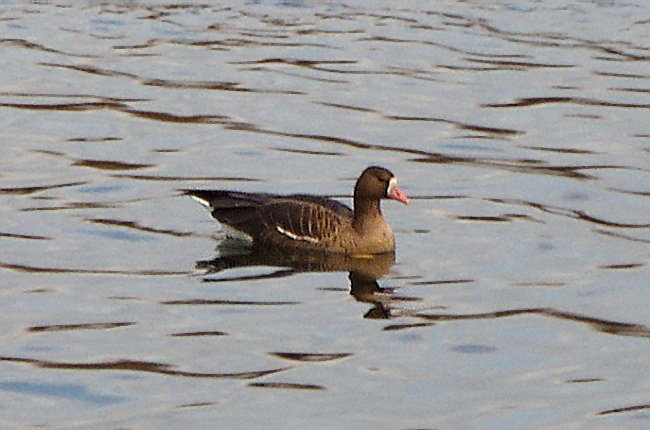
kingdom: Animalia
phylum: Chordata
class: Aves
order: Anseriformes
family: Anatidae
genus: Anser
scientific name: Anser albifrons
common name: Greater white-fronted goose
